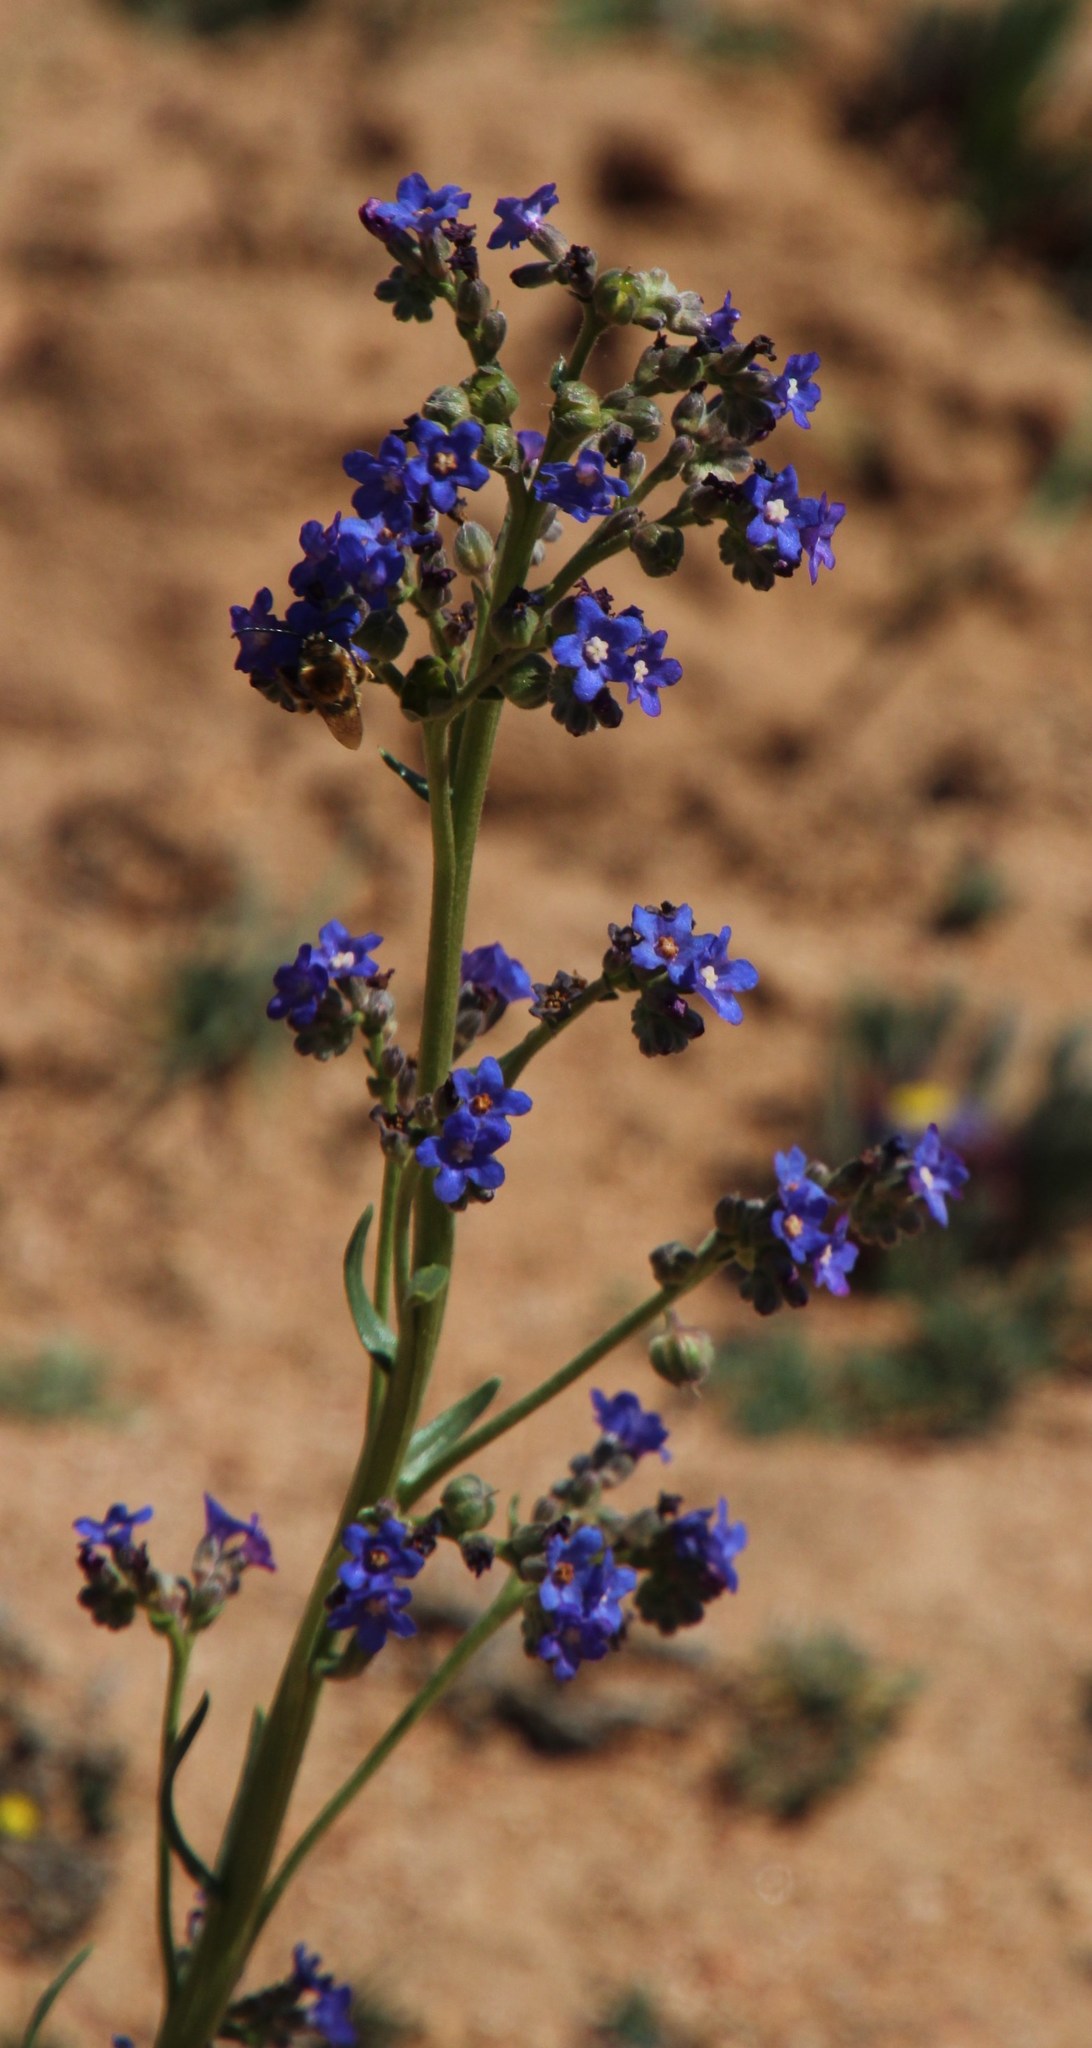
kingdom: Plantae
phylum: Tracheophyta
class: Magnoliopsida
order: Boraginales
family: Boraginaceae
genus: Anchusa
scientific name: Anchusa capensis
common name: Cape bugloss
